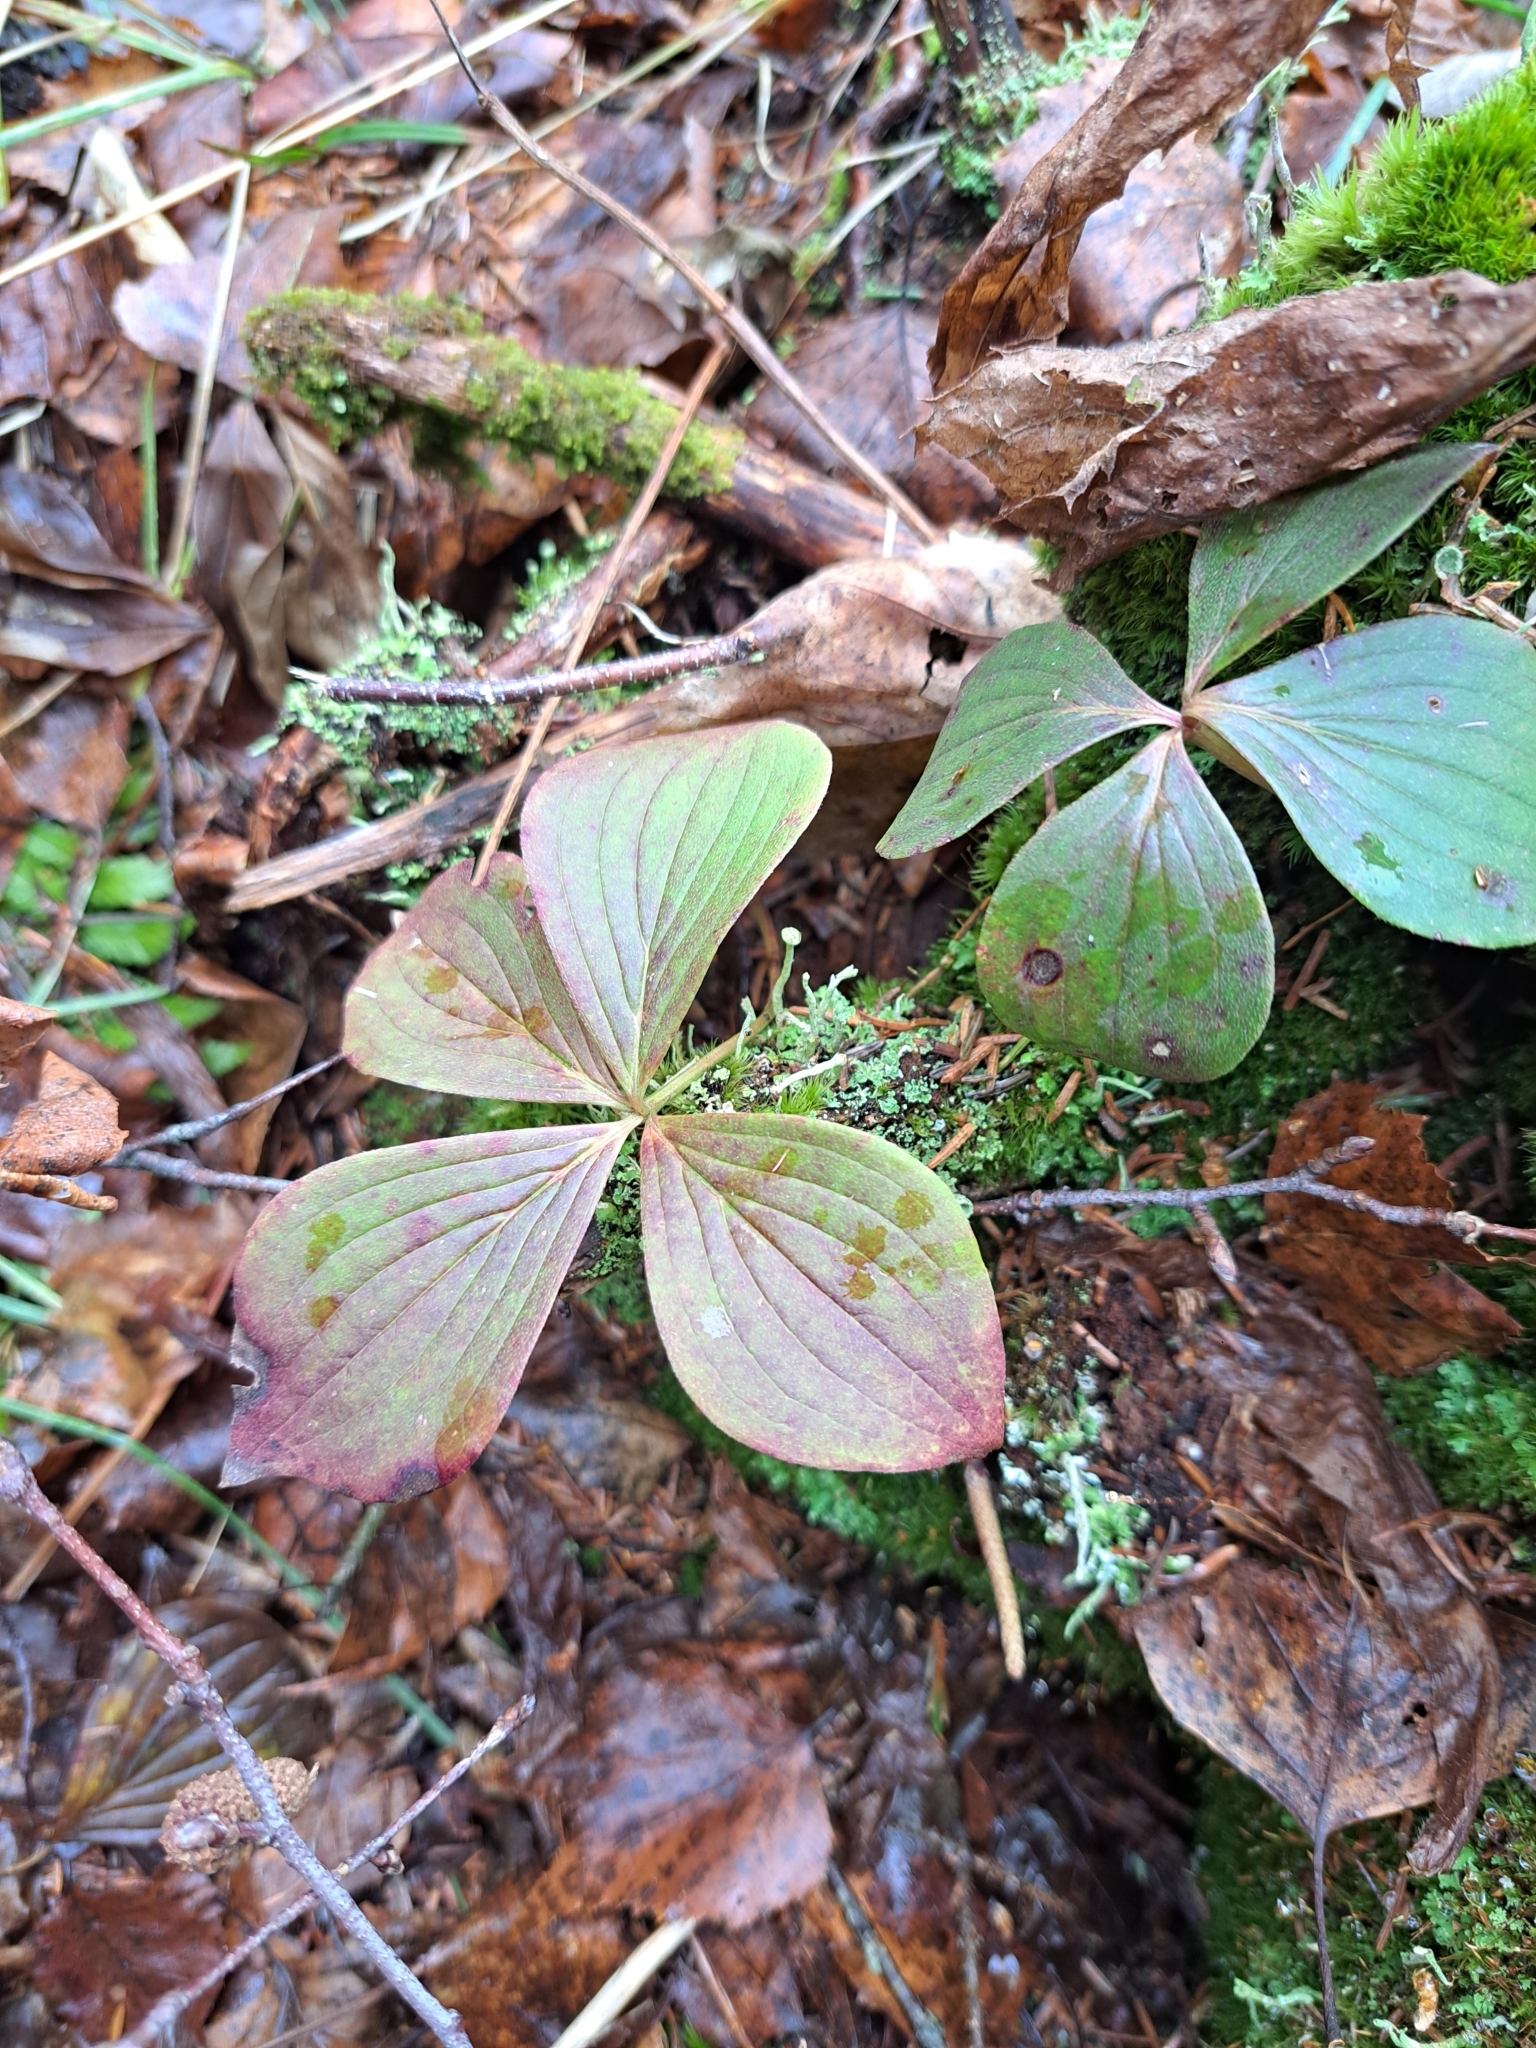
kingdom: Plantae
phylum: Tracheophyta
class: Magnoliopsida
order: Cornales
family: Cornaceae
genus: Cornus
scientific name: Cornus canadensis
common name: Creeping dogwood
